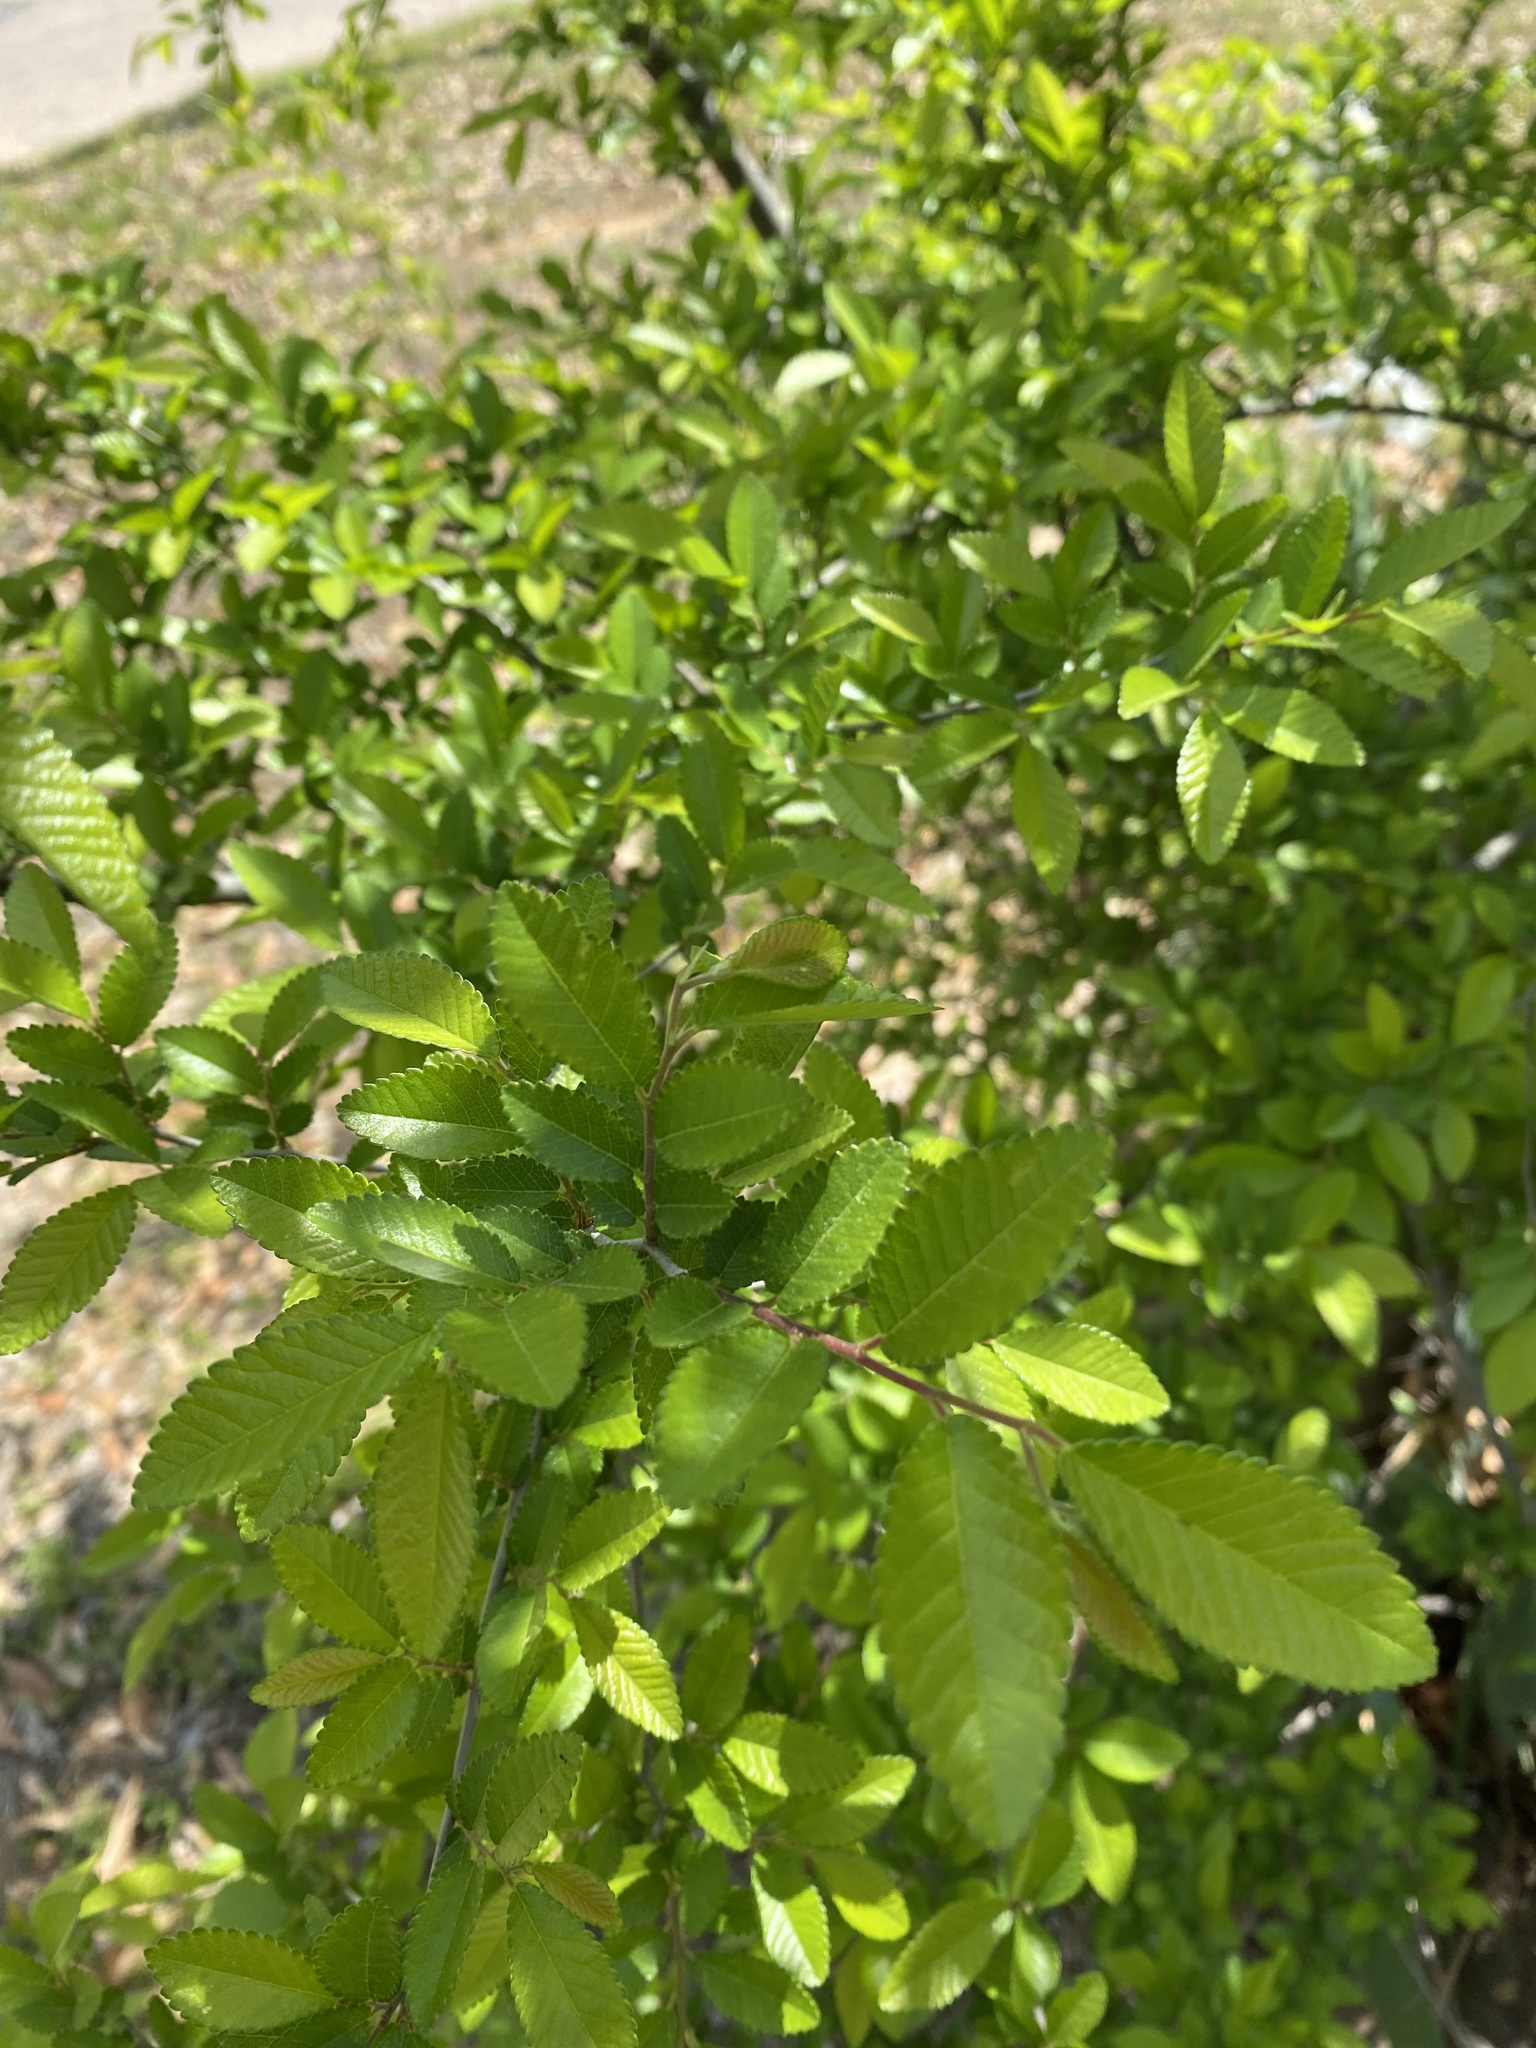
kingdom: Plantae
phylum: Tracheophyta
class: Magnoliopsida
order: Rosales
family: Ulmaceae
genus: Ulmus
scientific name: Ulmus crassifolia
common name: Basket elm
